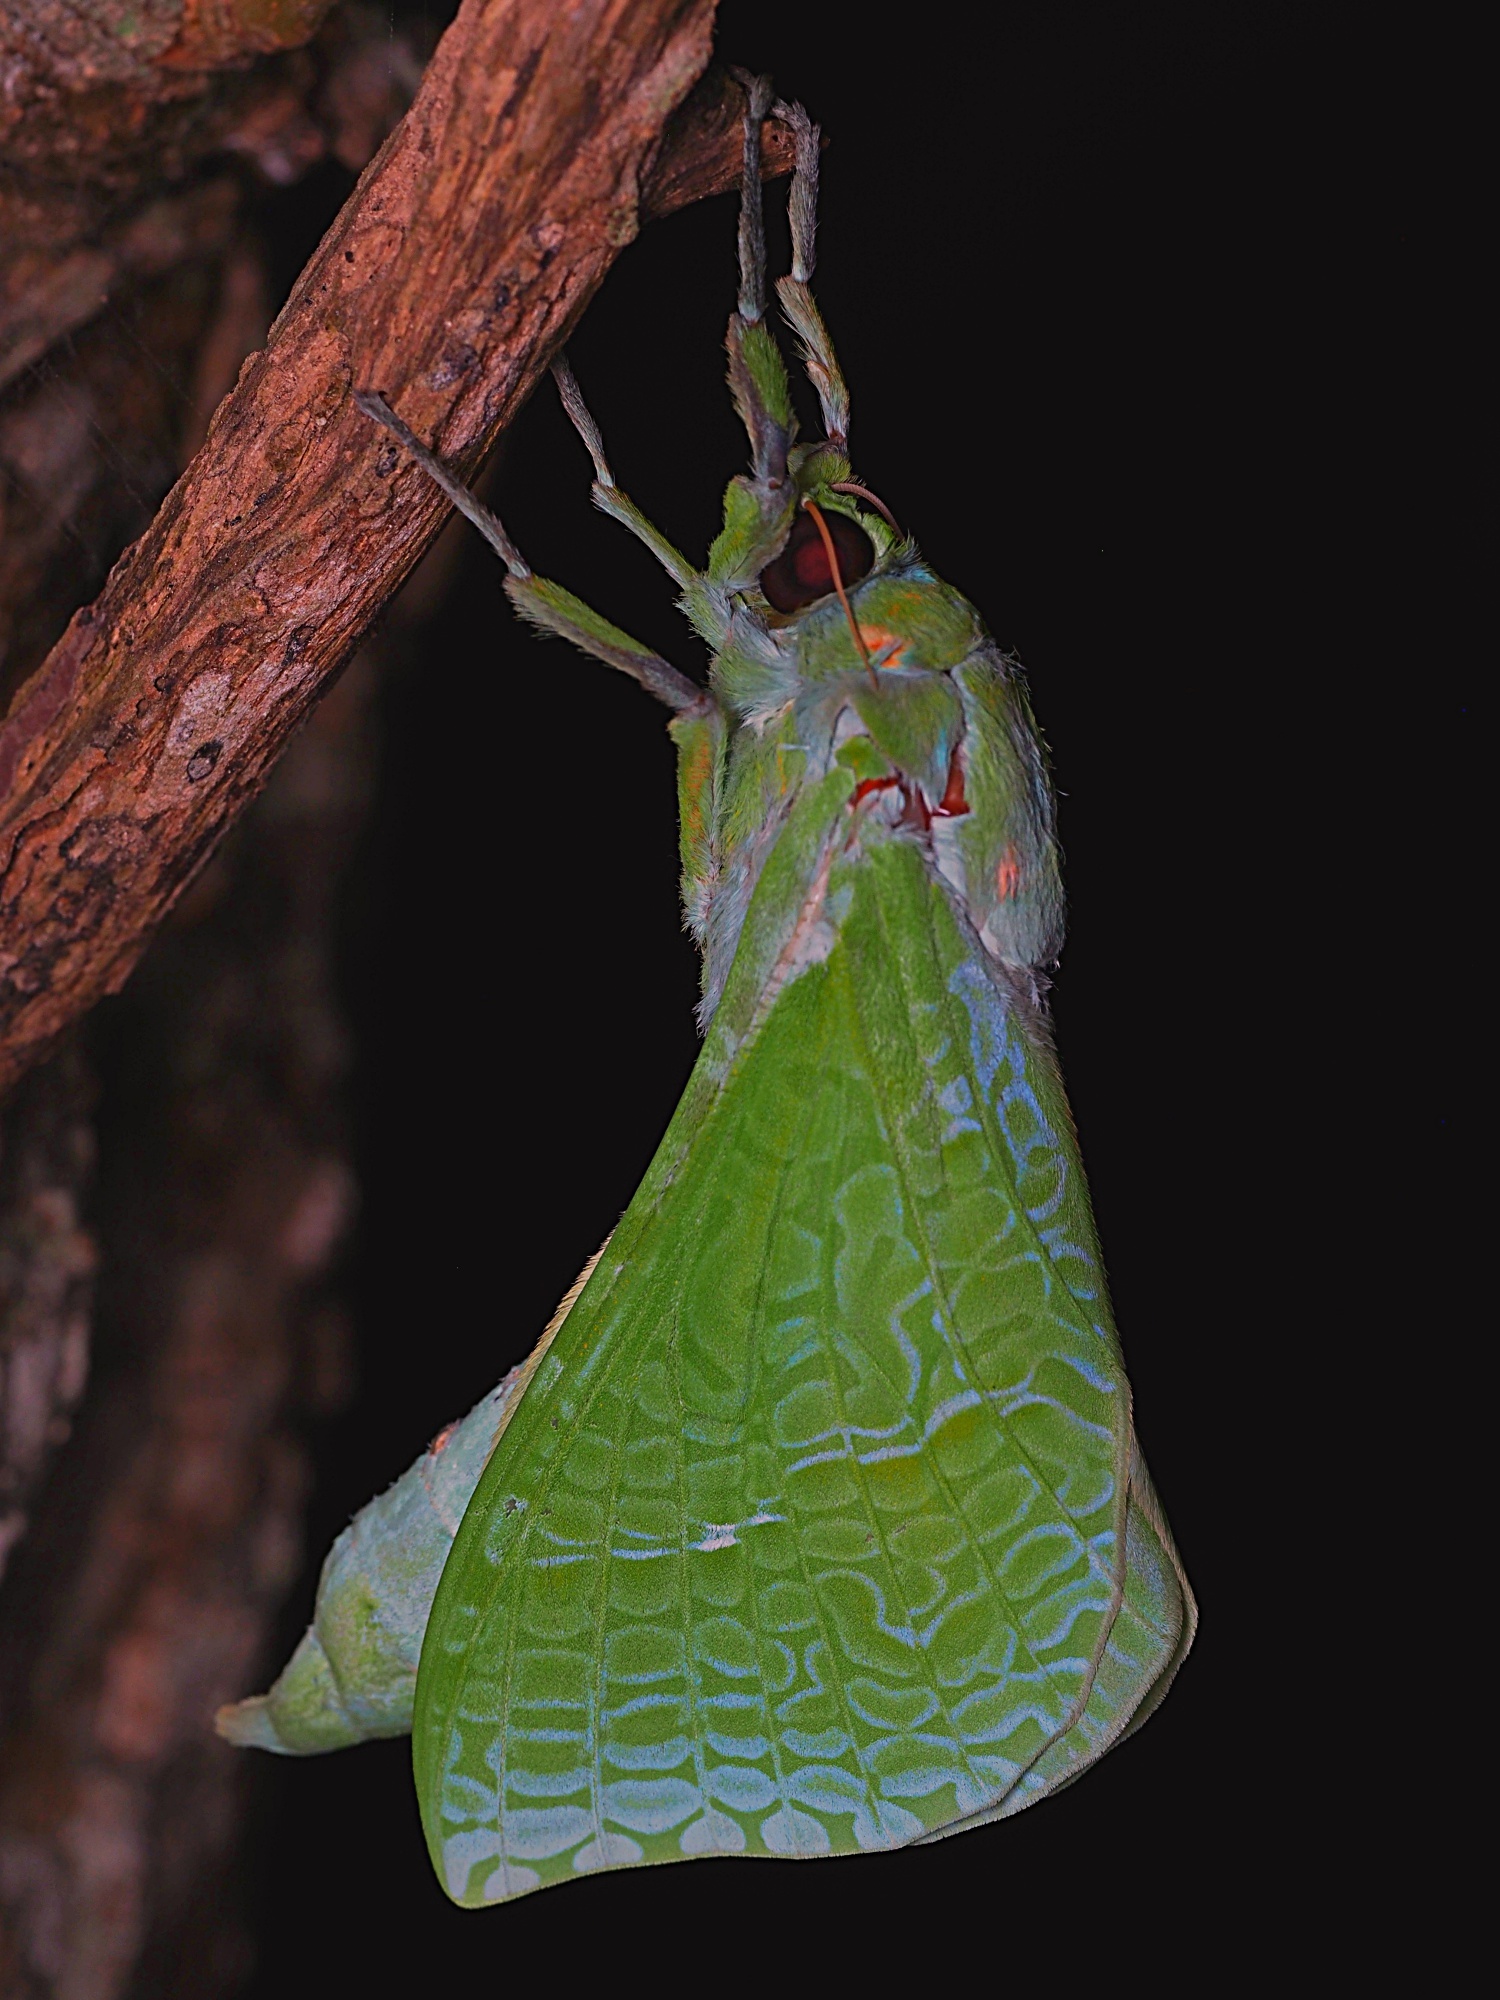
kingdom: Animalia
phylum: Arthropoda
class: Insecta
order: Lepidoptera
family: Hepialidae
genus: Aenetus
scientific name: Aenetus virescens
